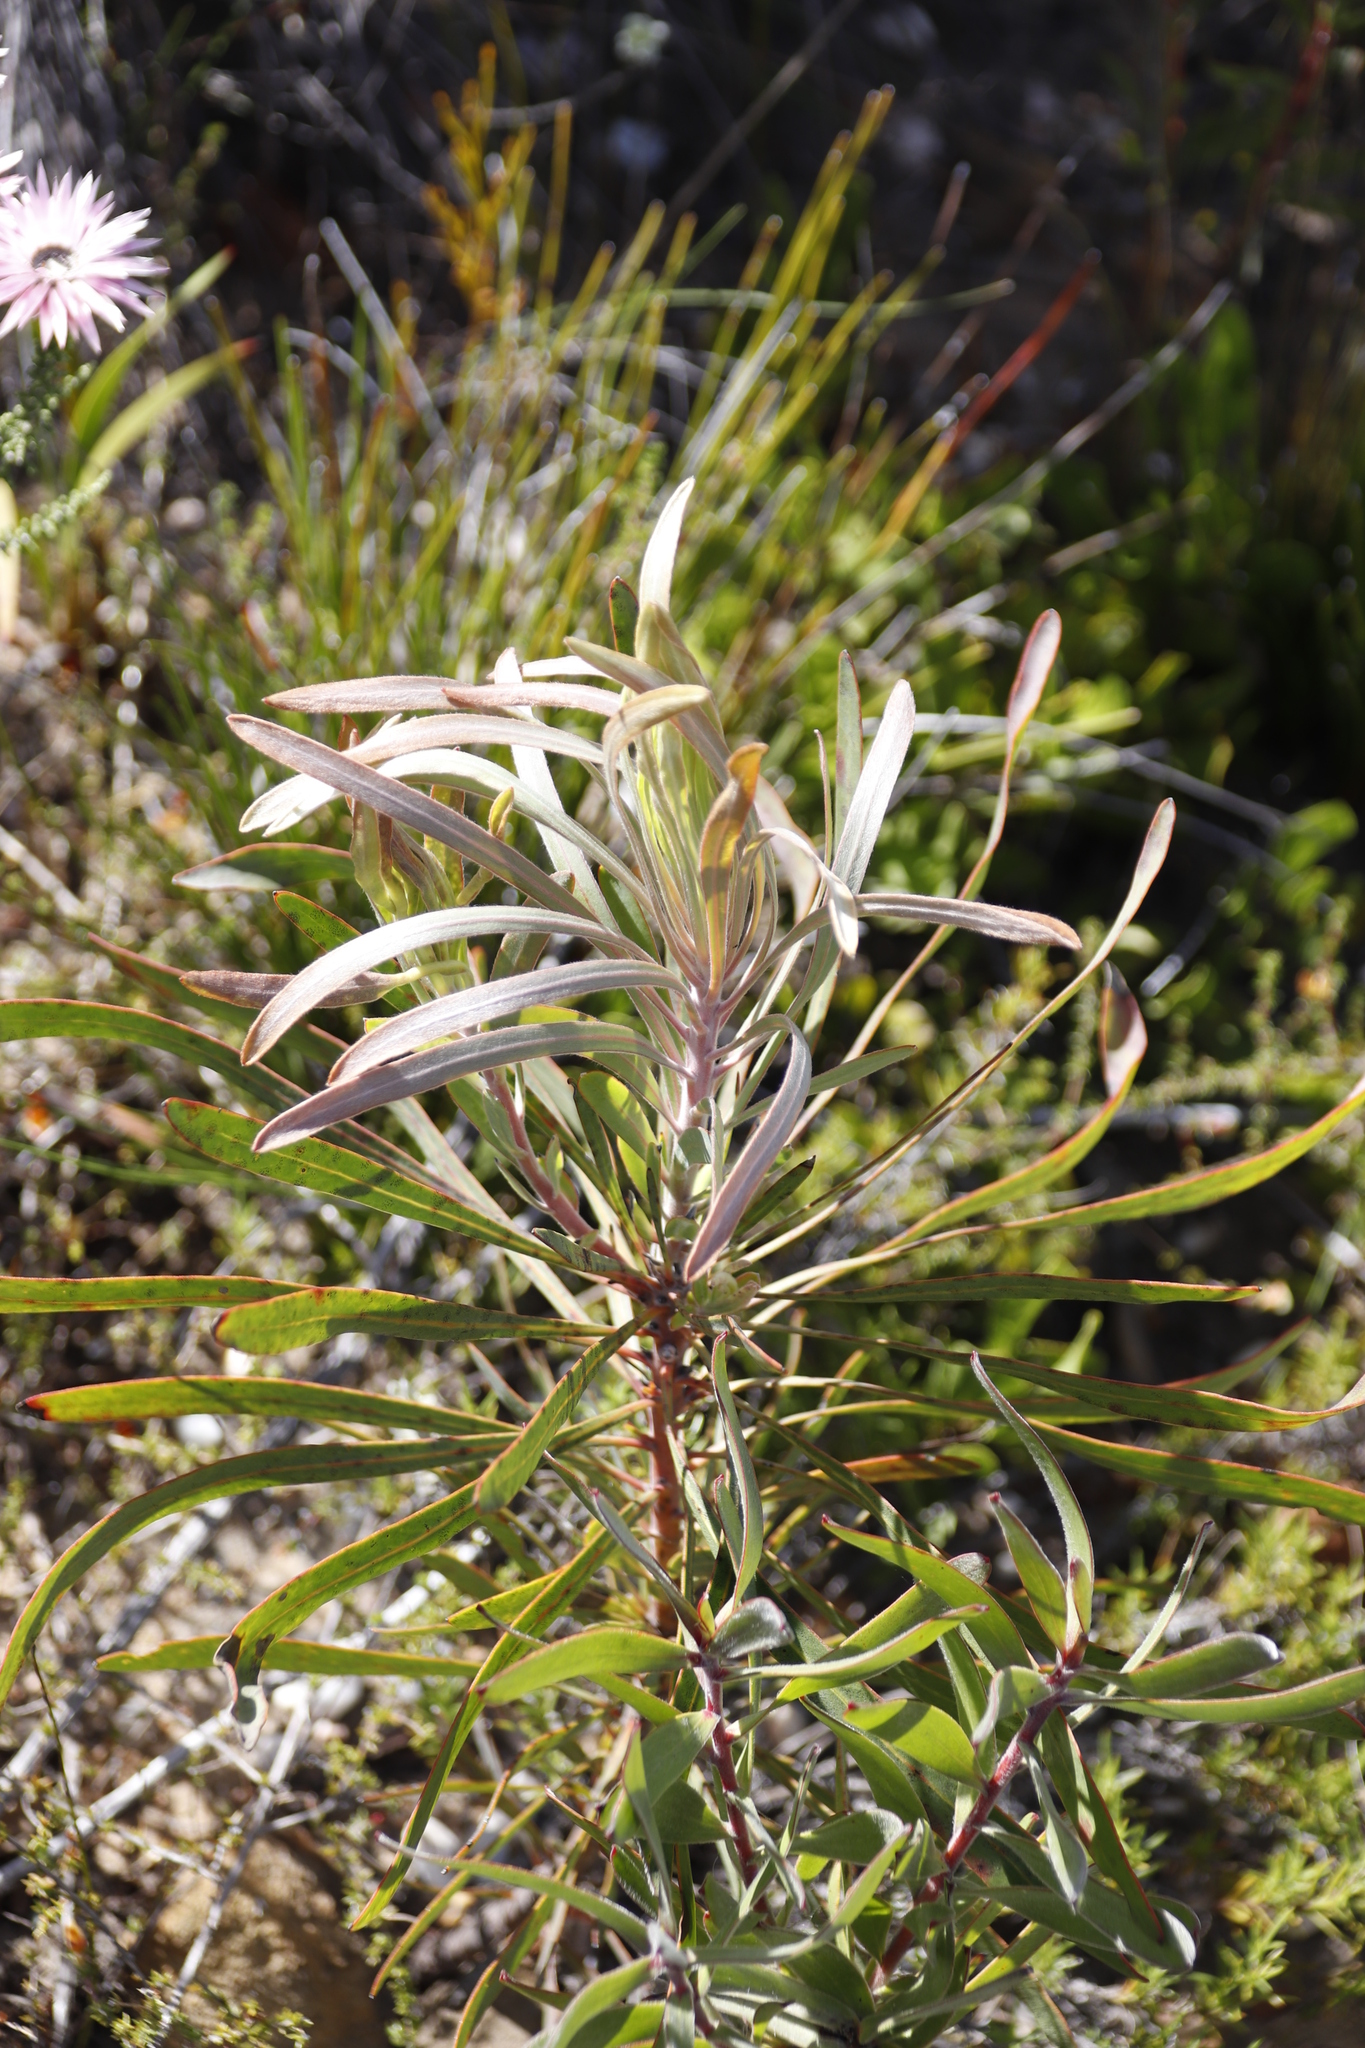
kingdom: Plantae
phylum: Tracheophyta
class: Magnoliopsida
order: Proteales
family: Proteaceae
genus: Protea
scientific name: Protea longifolia
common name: Long-leaf sugarbush
